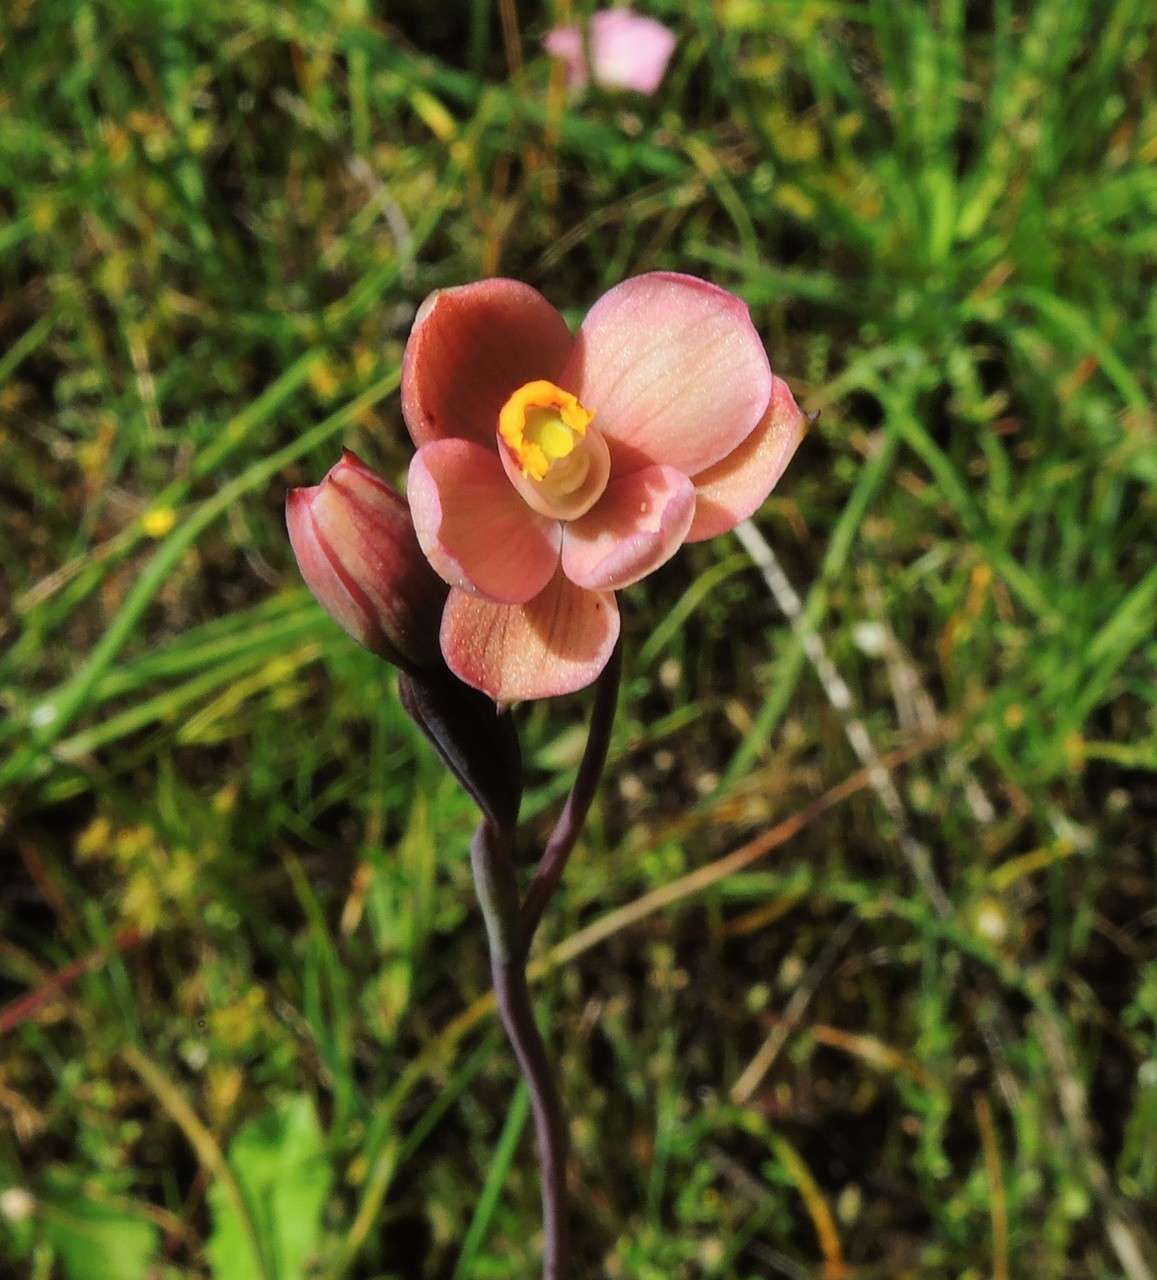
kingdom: Plantae
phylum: Tracheophyta
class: Liliopsida
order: Asparagales
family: Orchidaceae
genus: Thelymitra
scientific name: Thelymitra rubra
